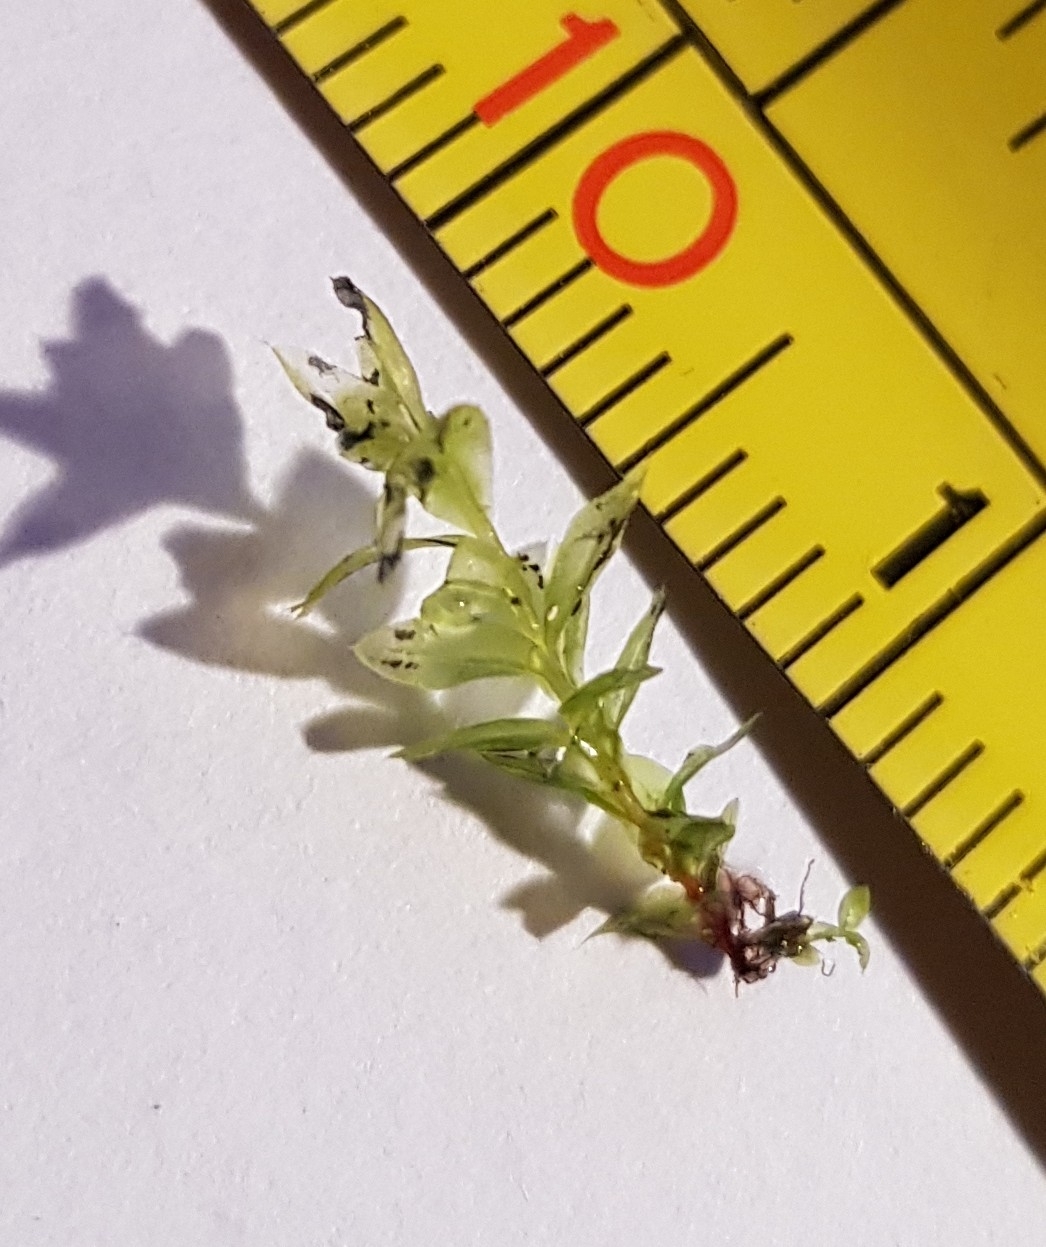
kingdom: Plantae
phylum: Bryophyta
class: Bryopsida
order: Bryales
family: Mniaceae
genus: Mnium
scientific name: Mnium stellare
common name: Star leafy moss
